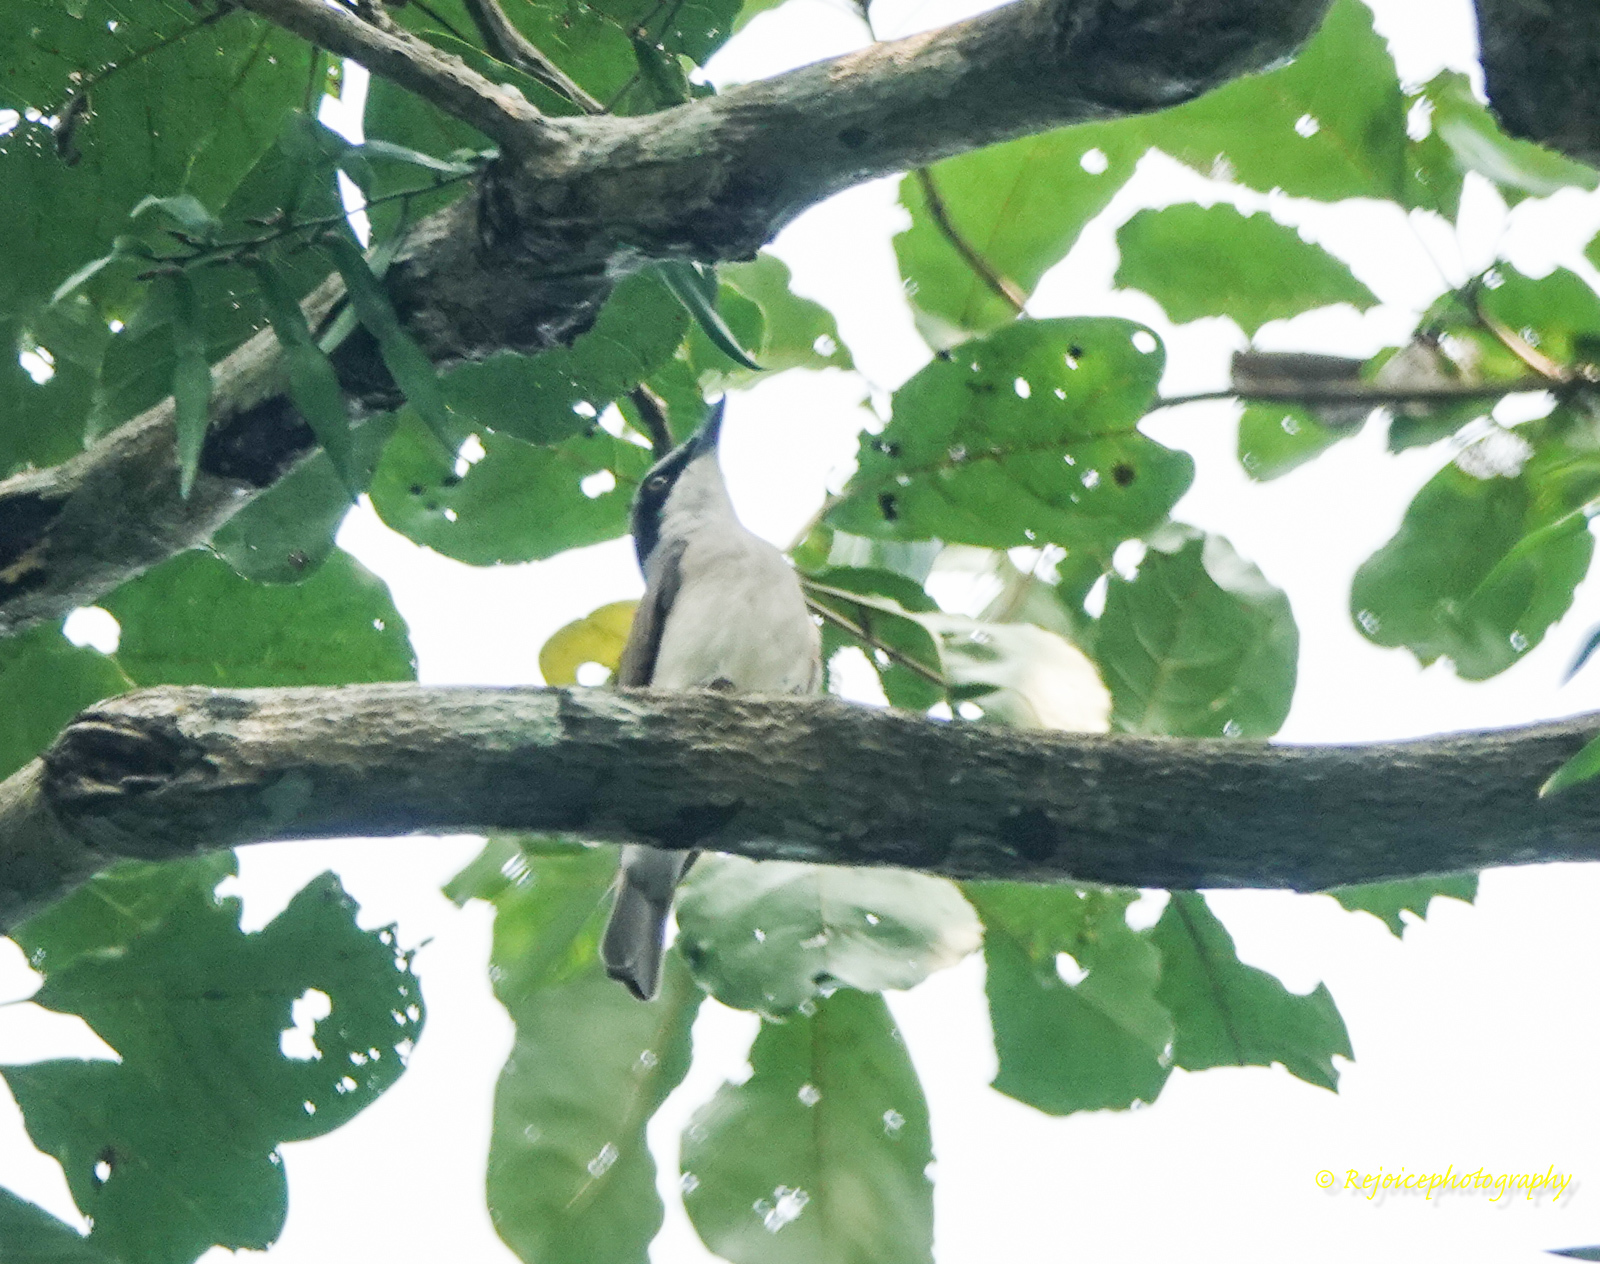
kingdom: Animalia
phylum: Chordata
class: Aves
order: Passeriformes
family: Campephagidae
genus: Coracina
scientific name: Coracina macei
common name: Large cuckooshrike
